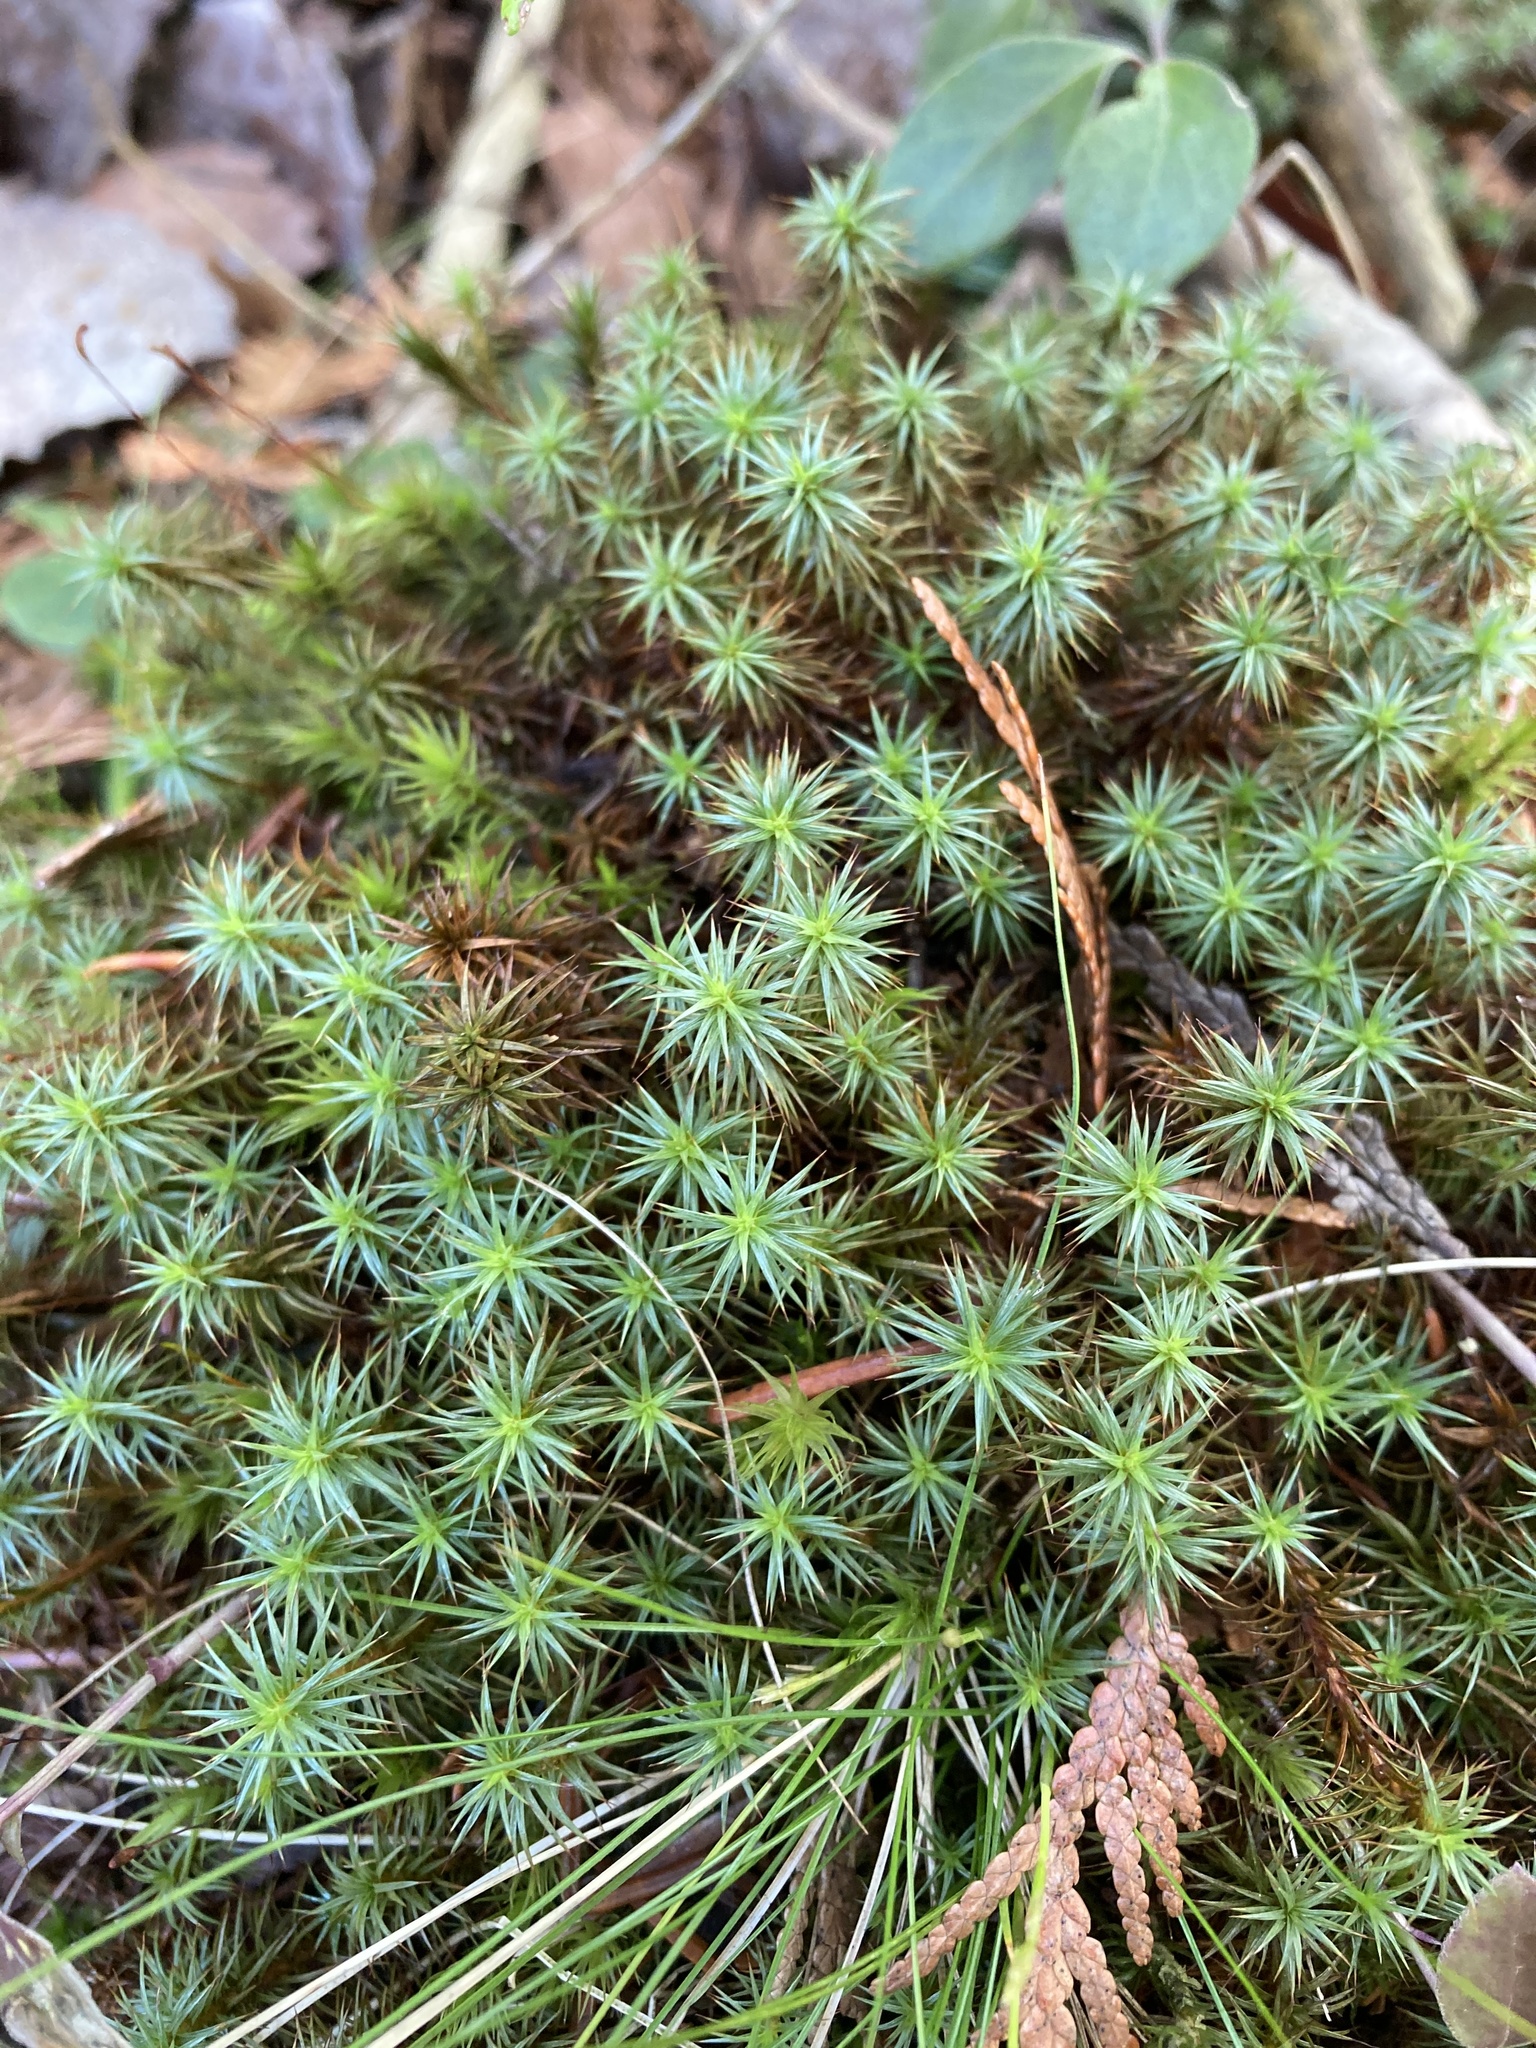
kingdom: Plantae
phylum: Bryophyta
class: Polytrichopsida
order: Polytrichales
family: Polytrichaceae
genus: Polytrichum
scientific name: Polytrichum juniperinum
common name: Juniper haircap moss
